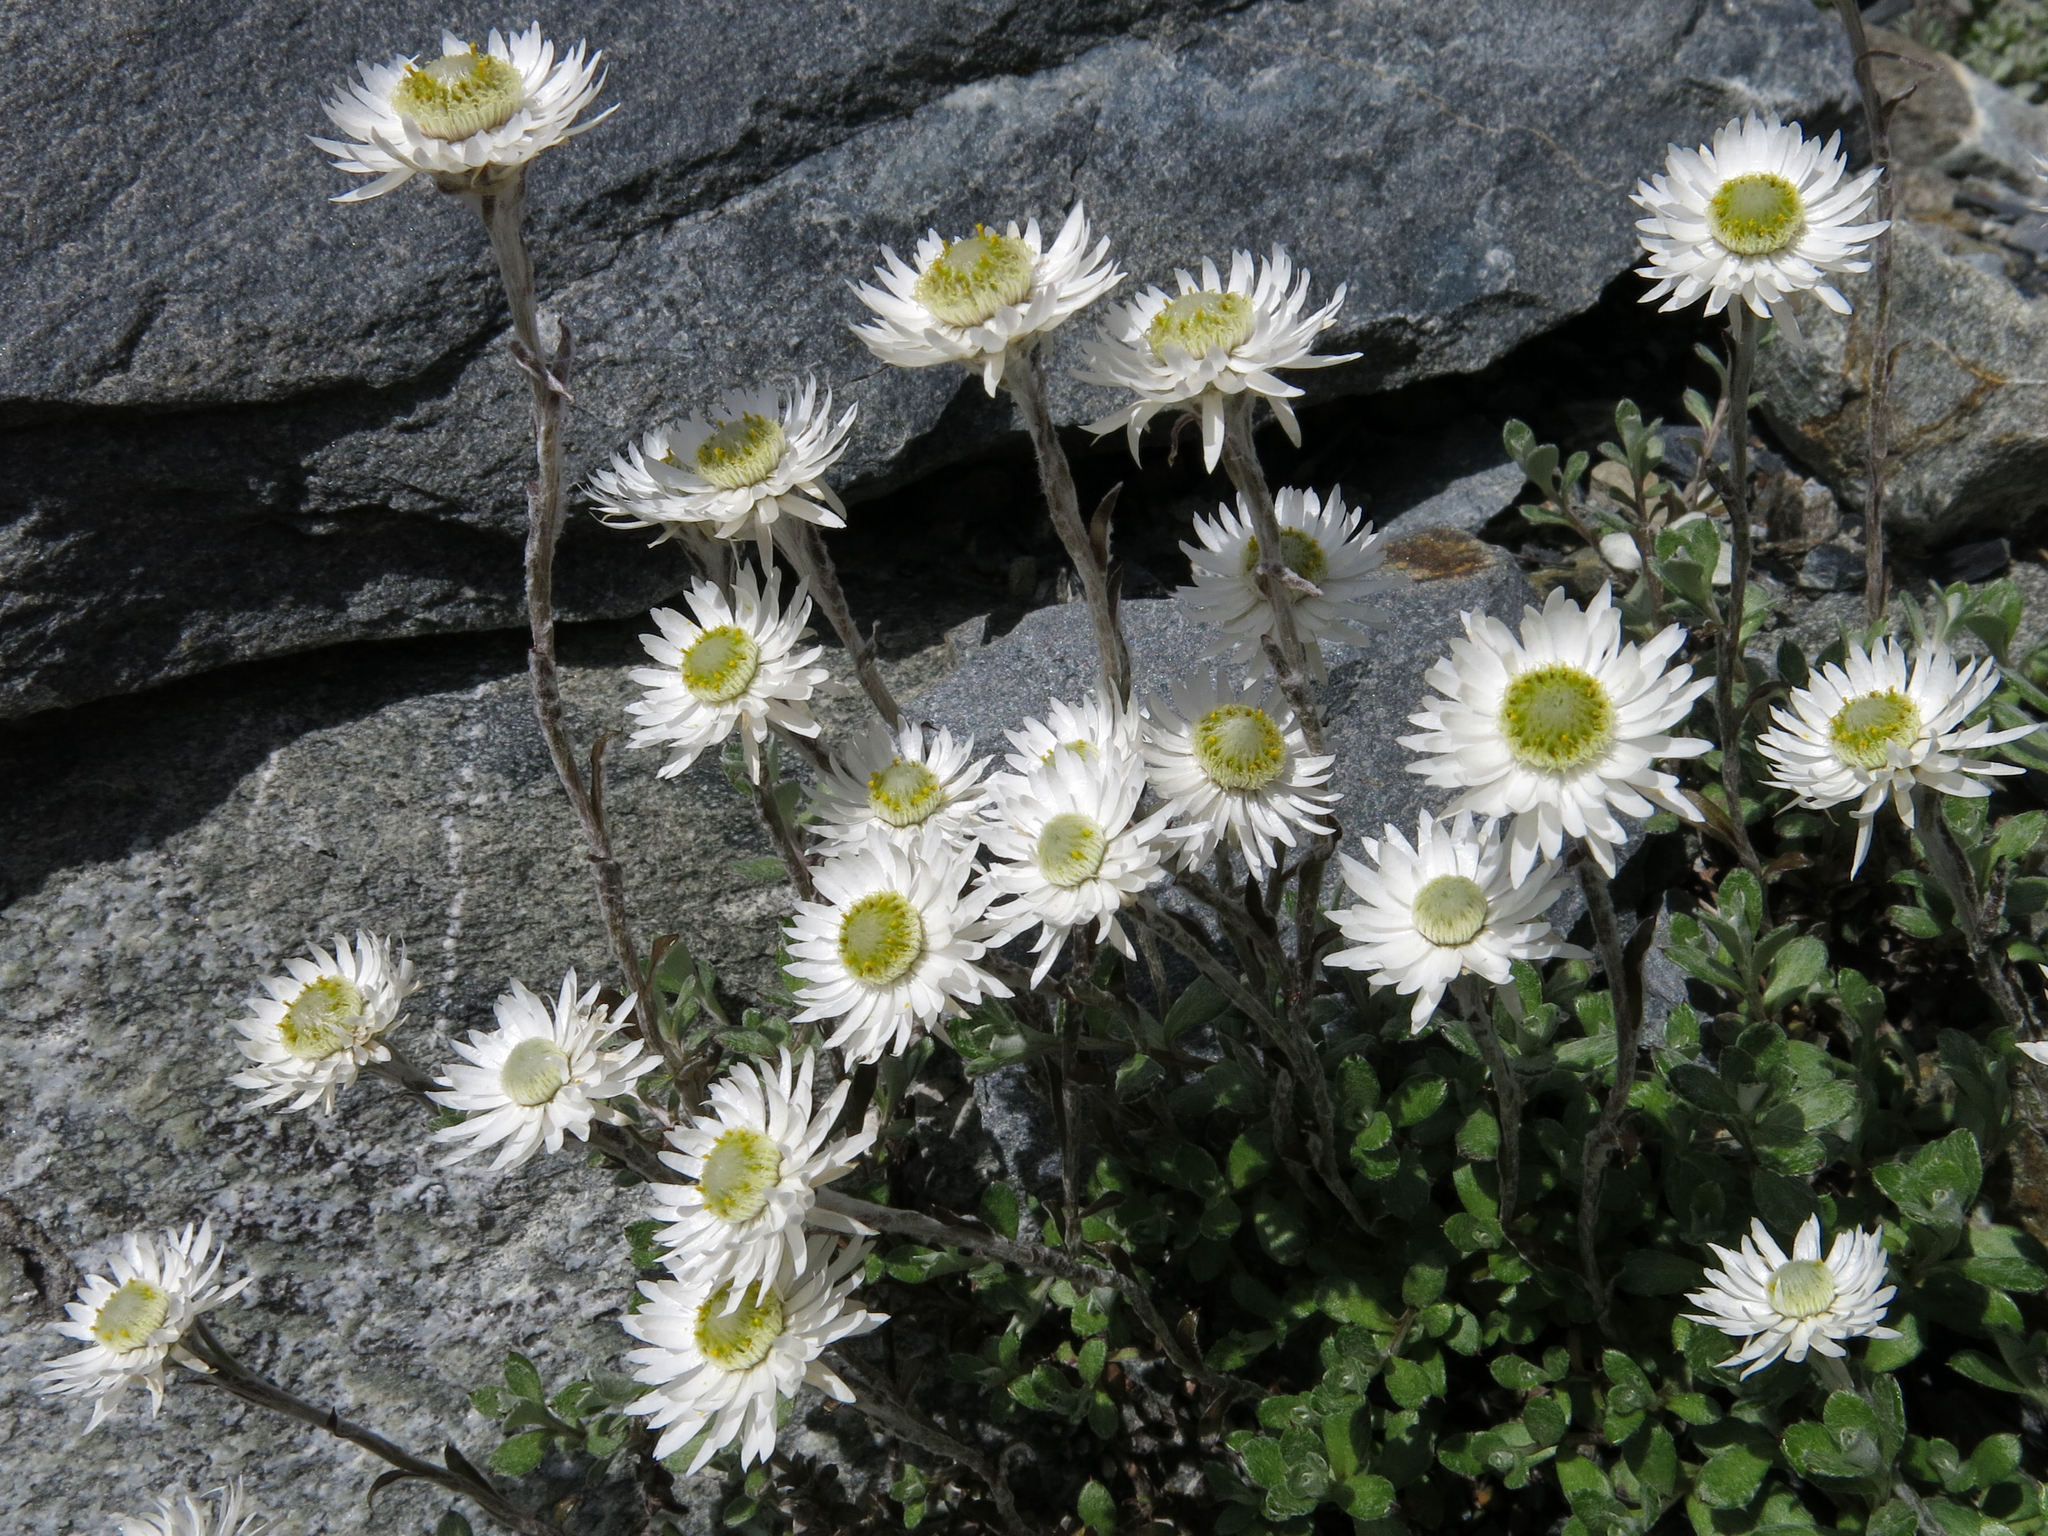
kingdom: Plantae
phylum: Tracheophyta
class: Magnoliopsida
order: Asterales
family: Asteraceae
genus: Anaphalioides
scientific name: Anaphalioides bellidioides
